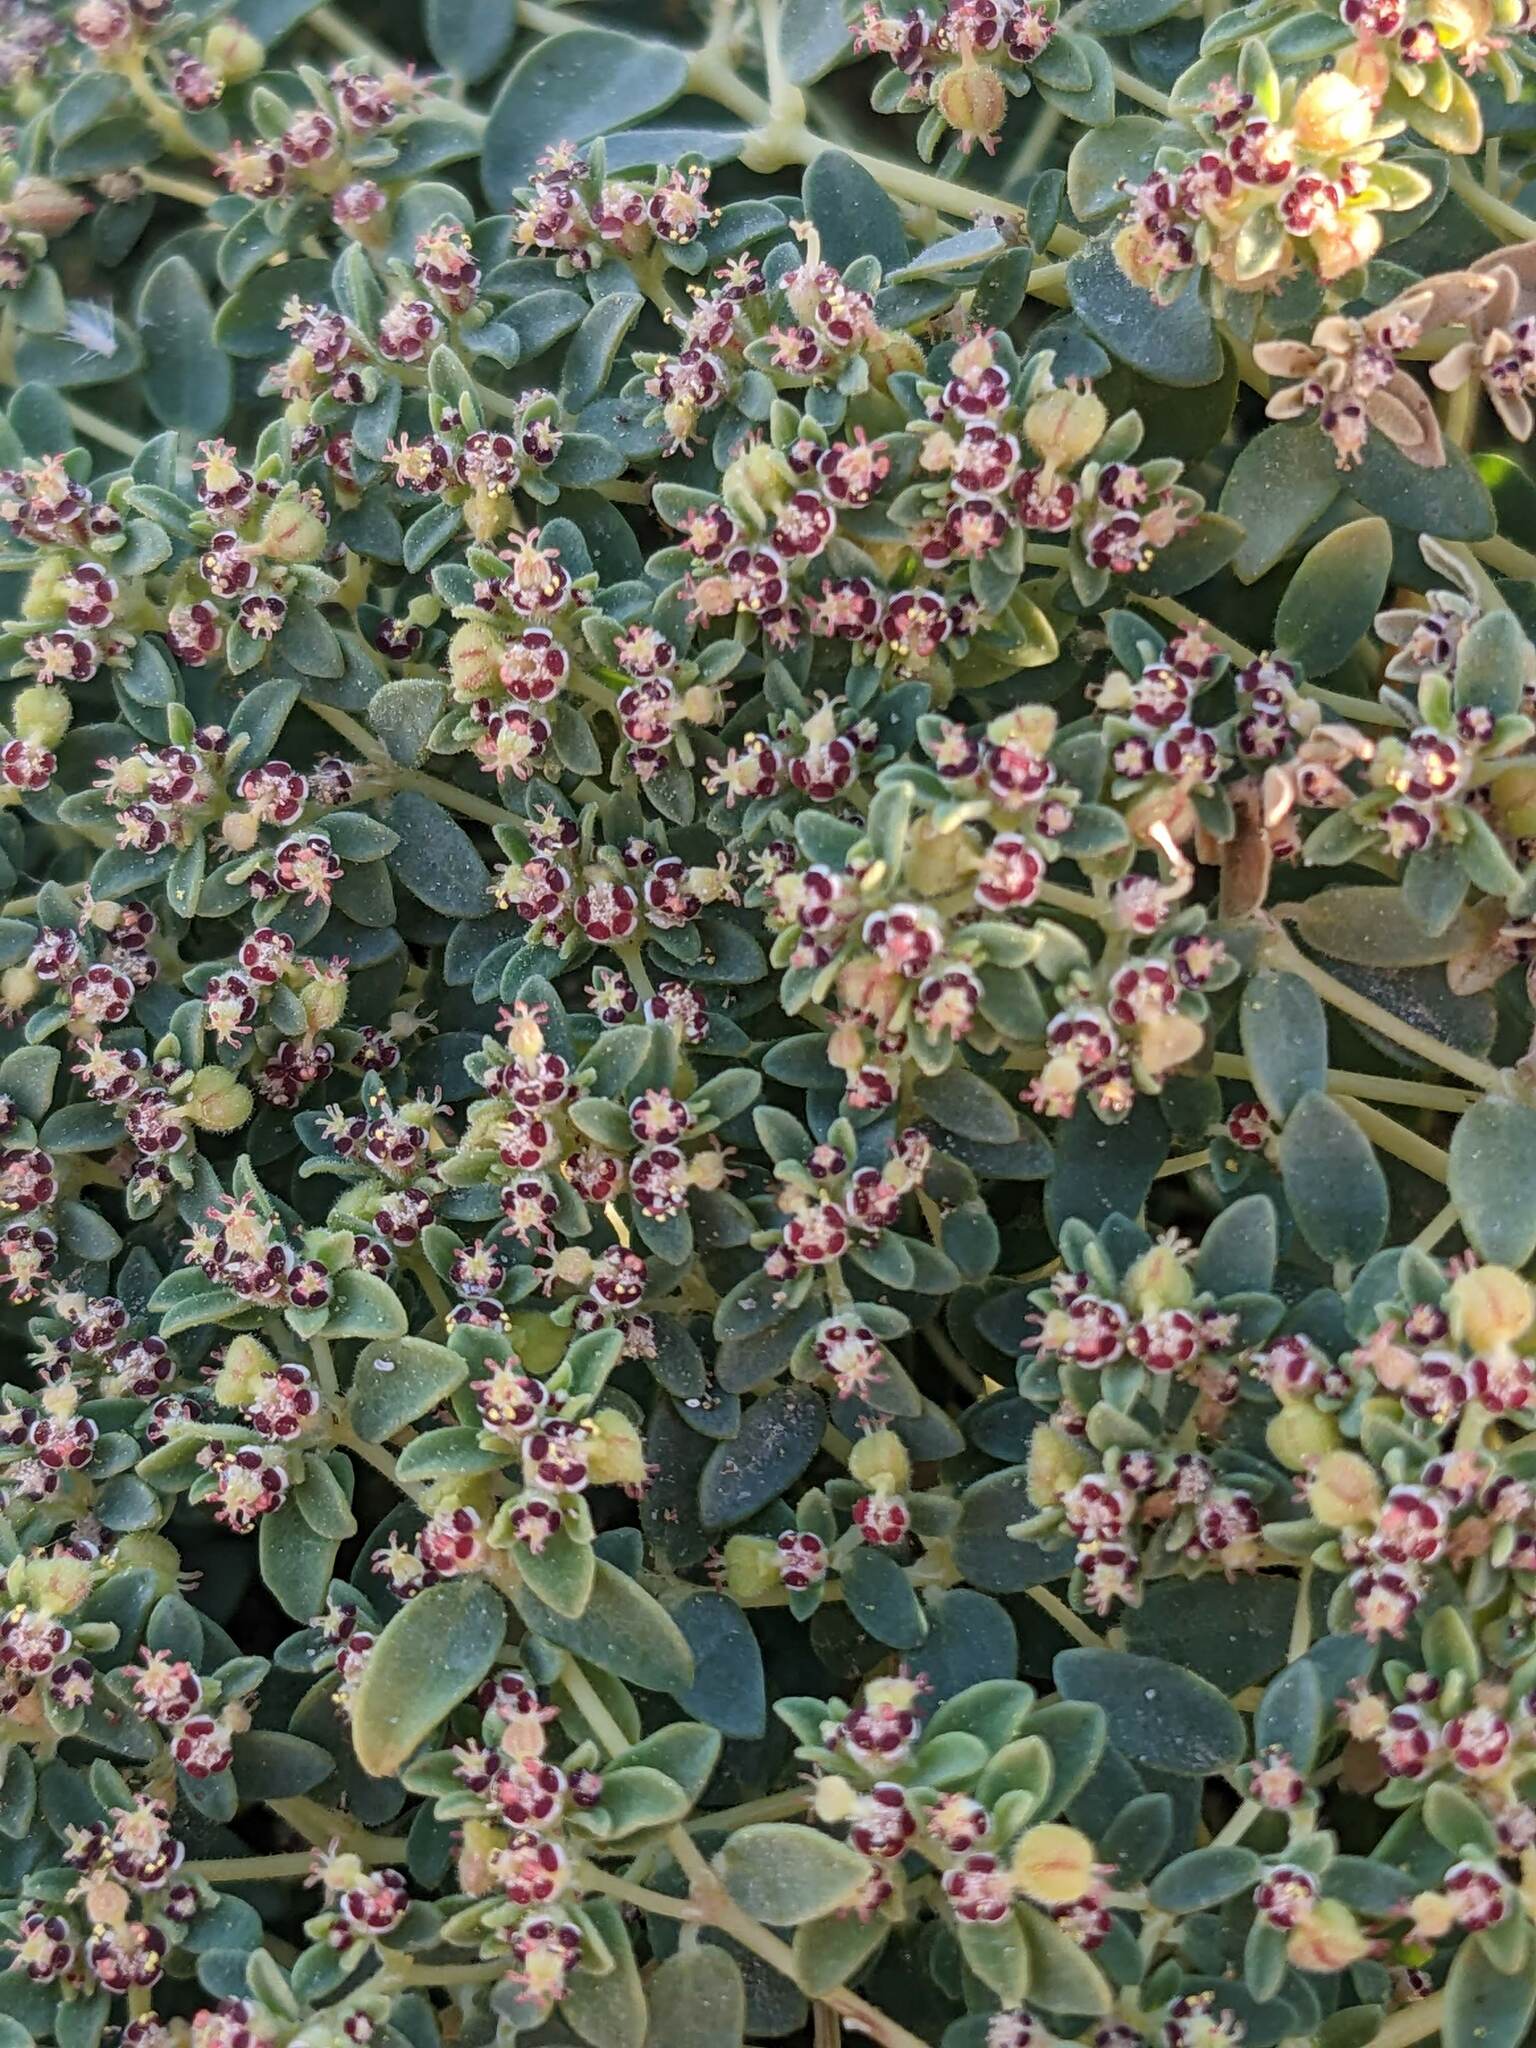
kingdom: Plantae
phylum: Tracheophyta
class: Magnoliopsida
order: Malpighiales
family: Euphorbiaceae
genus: Euphorbia
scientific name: Euphorbia polycarpa
